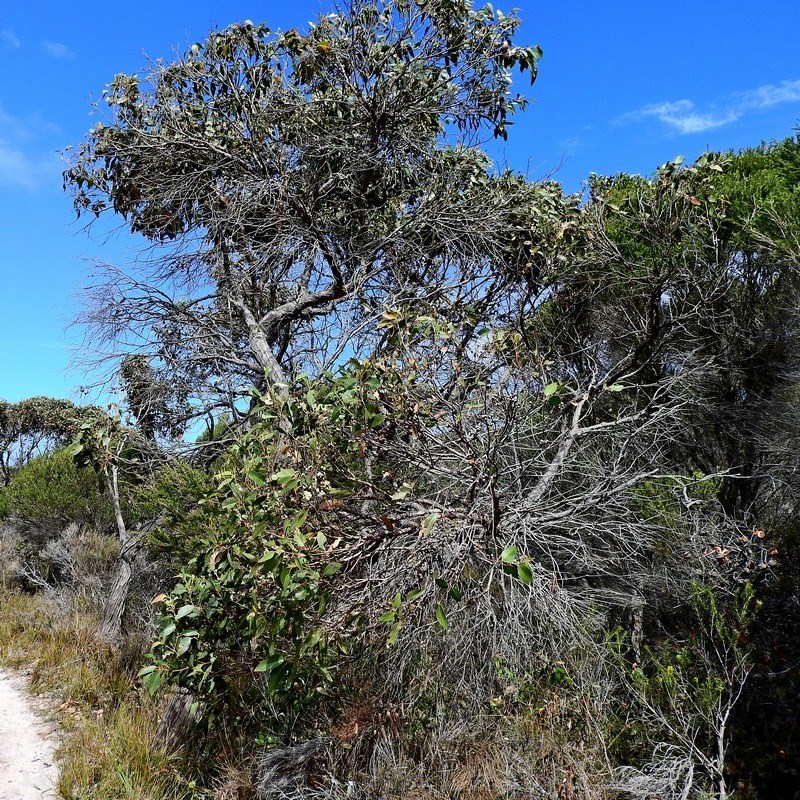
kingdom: Plantae
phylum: Tracheophyta
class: Magnoliopsida
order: Myrtales
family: Myrtaceae
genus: Eucalyptus
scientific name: Eucalyptus baxteri
